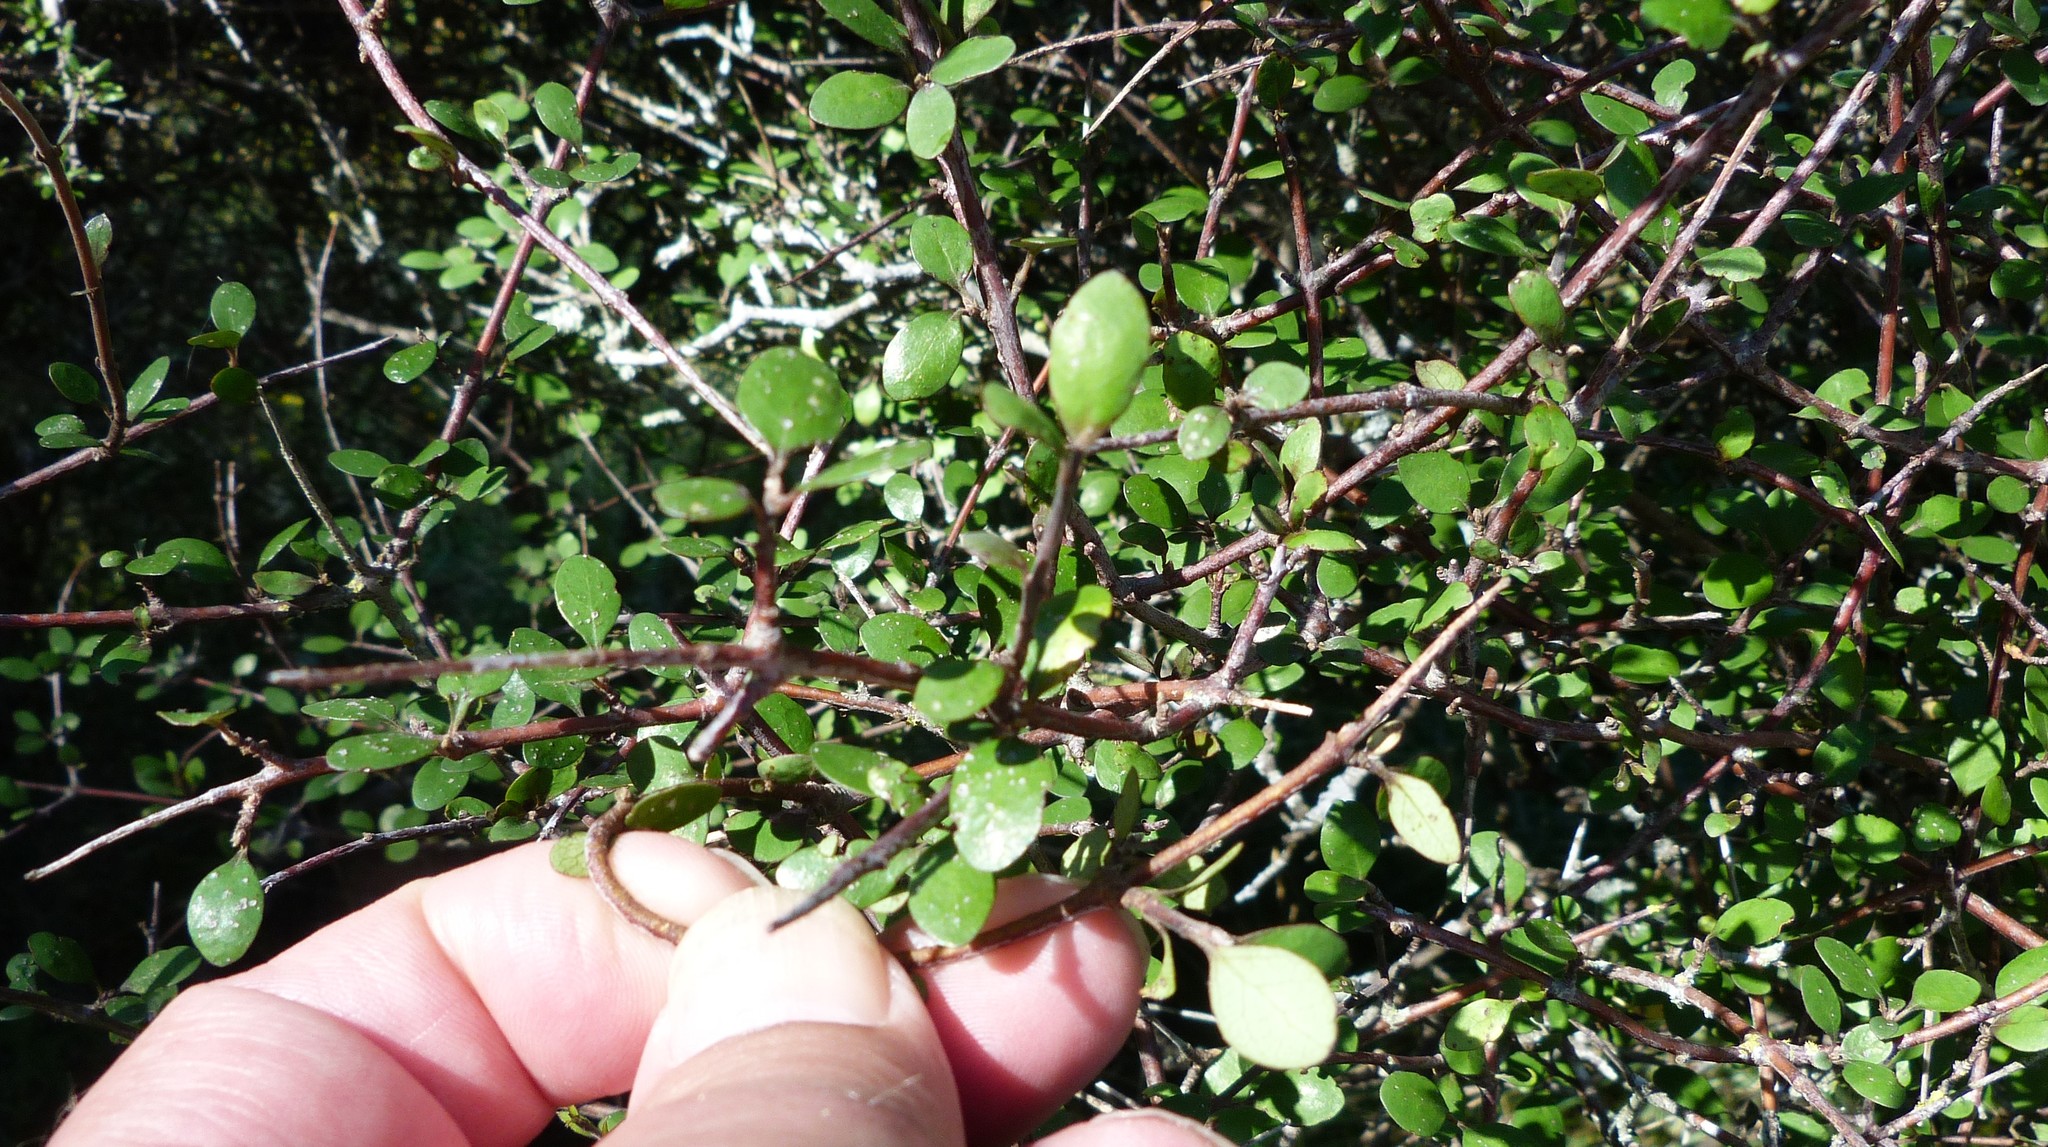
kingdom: Plantae
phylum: Tracheophyta
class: Magnoliopsida
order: Gentianales
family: Rubiaceae
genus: Coprosma
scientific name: Coprosma crassifolia
